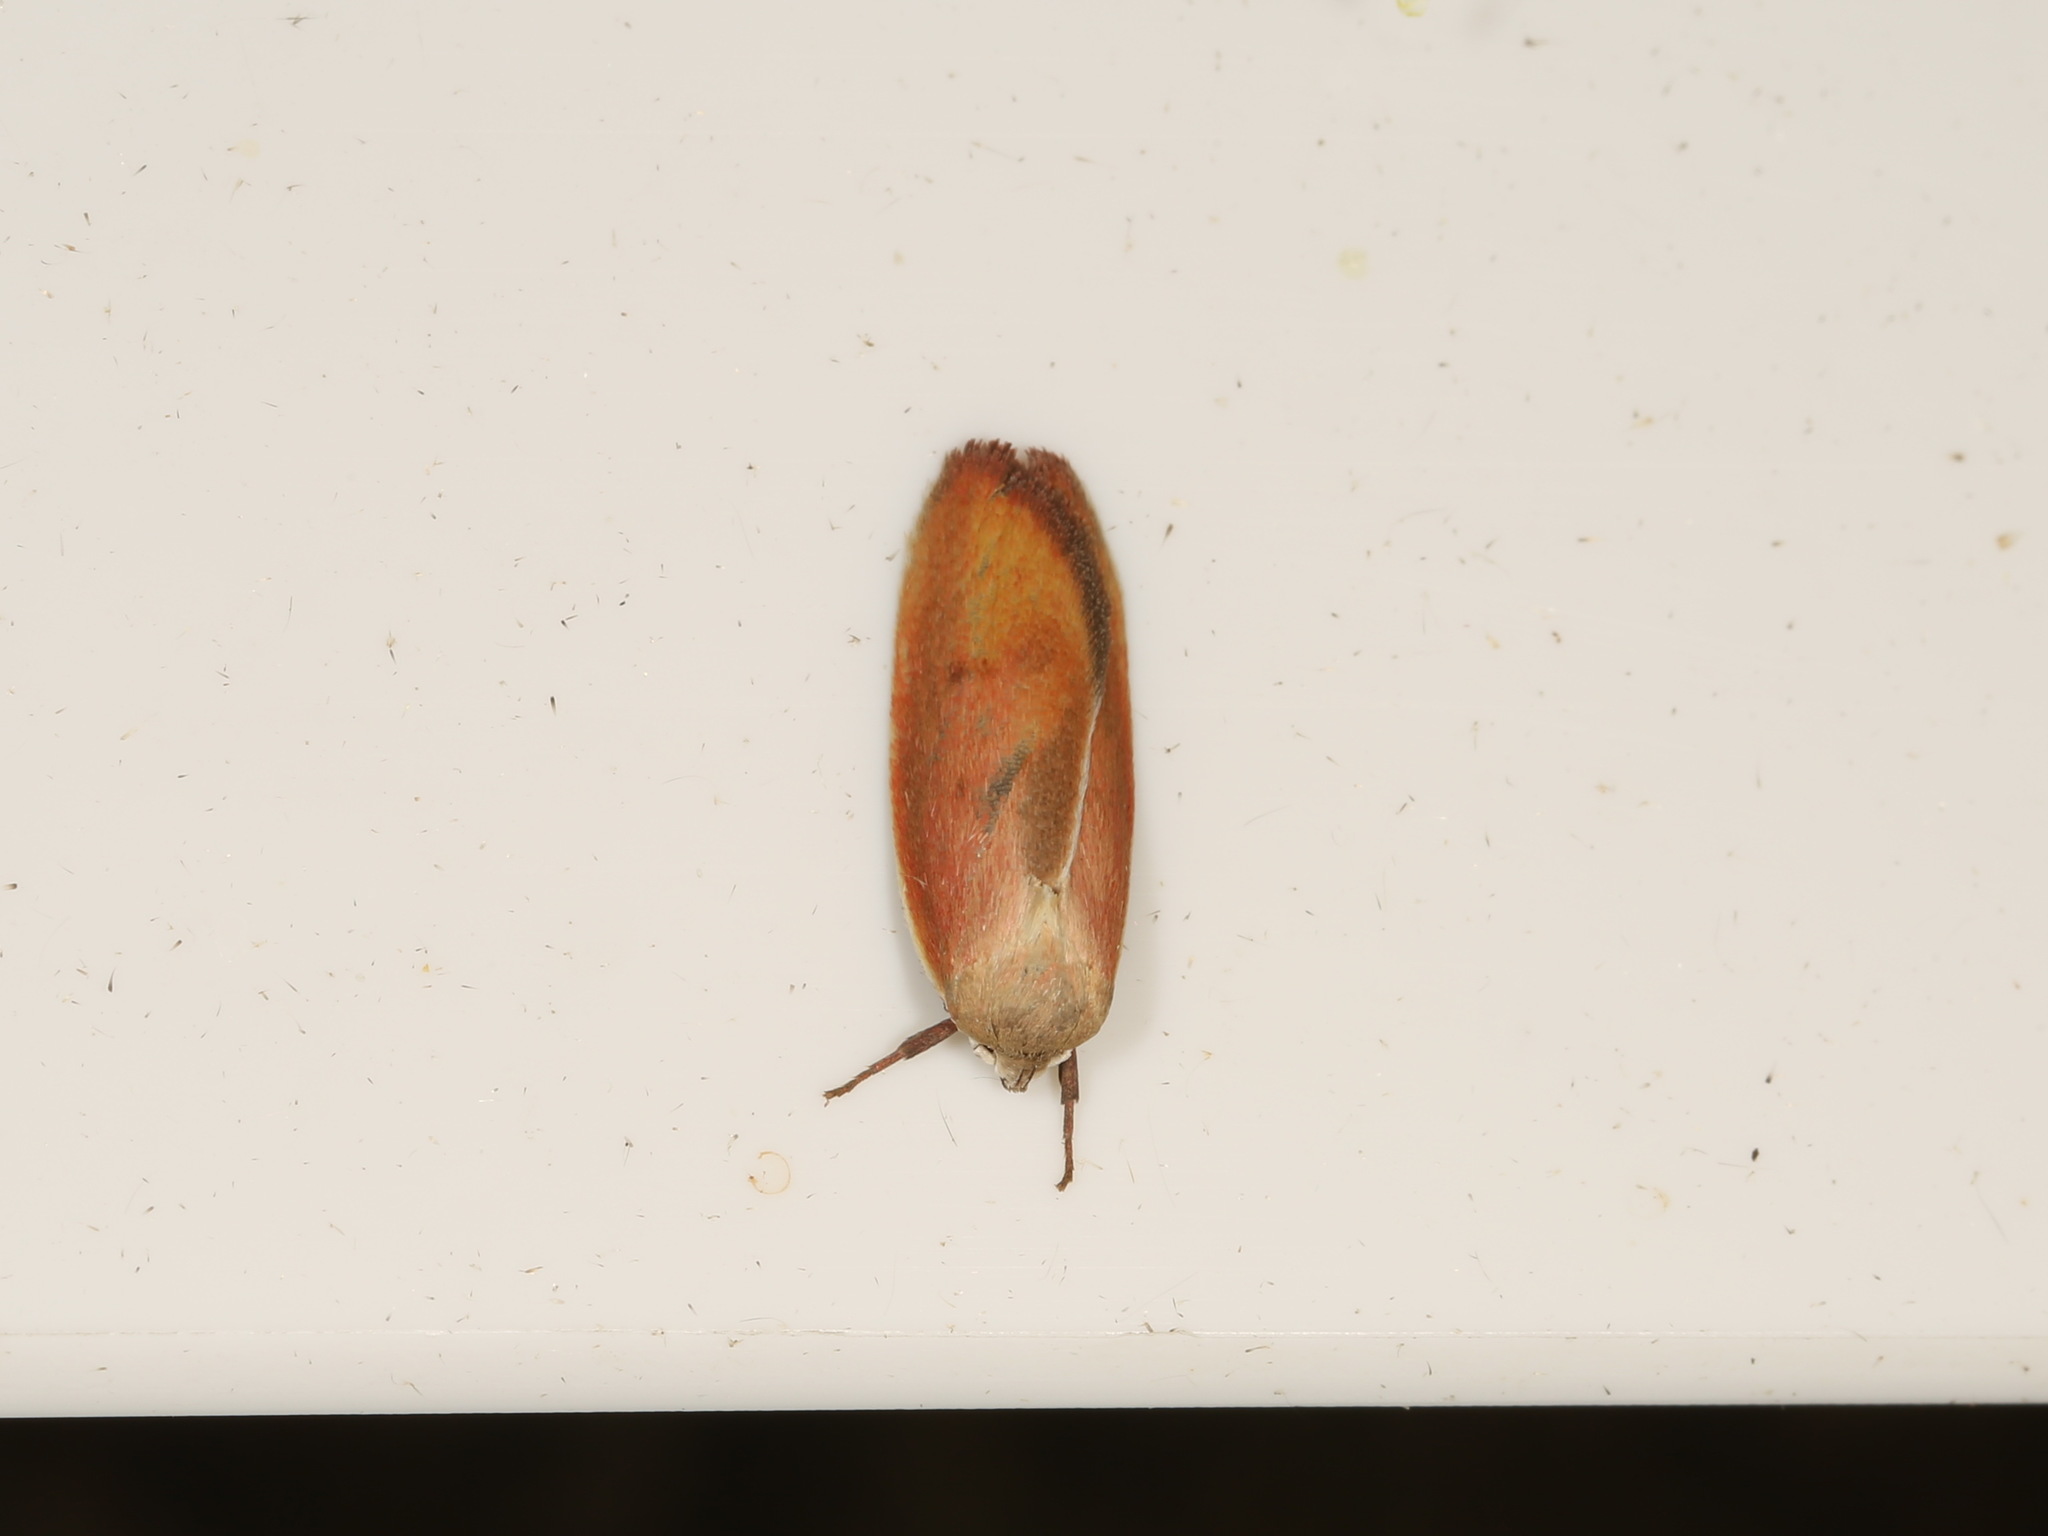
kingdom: Animalia
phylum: Arthropoda
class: Insecta
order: Lepidoptera
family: Oecophoridae
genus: Ptyoptila
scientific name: Ptyoptila matutinella
